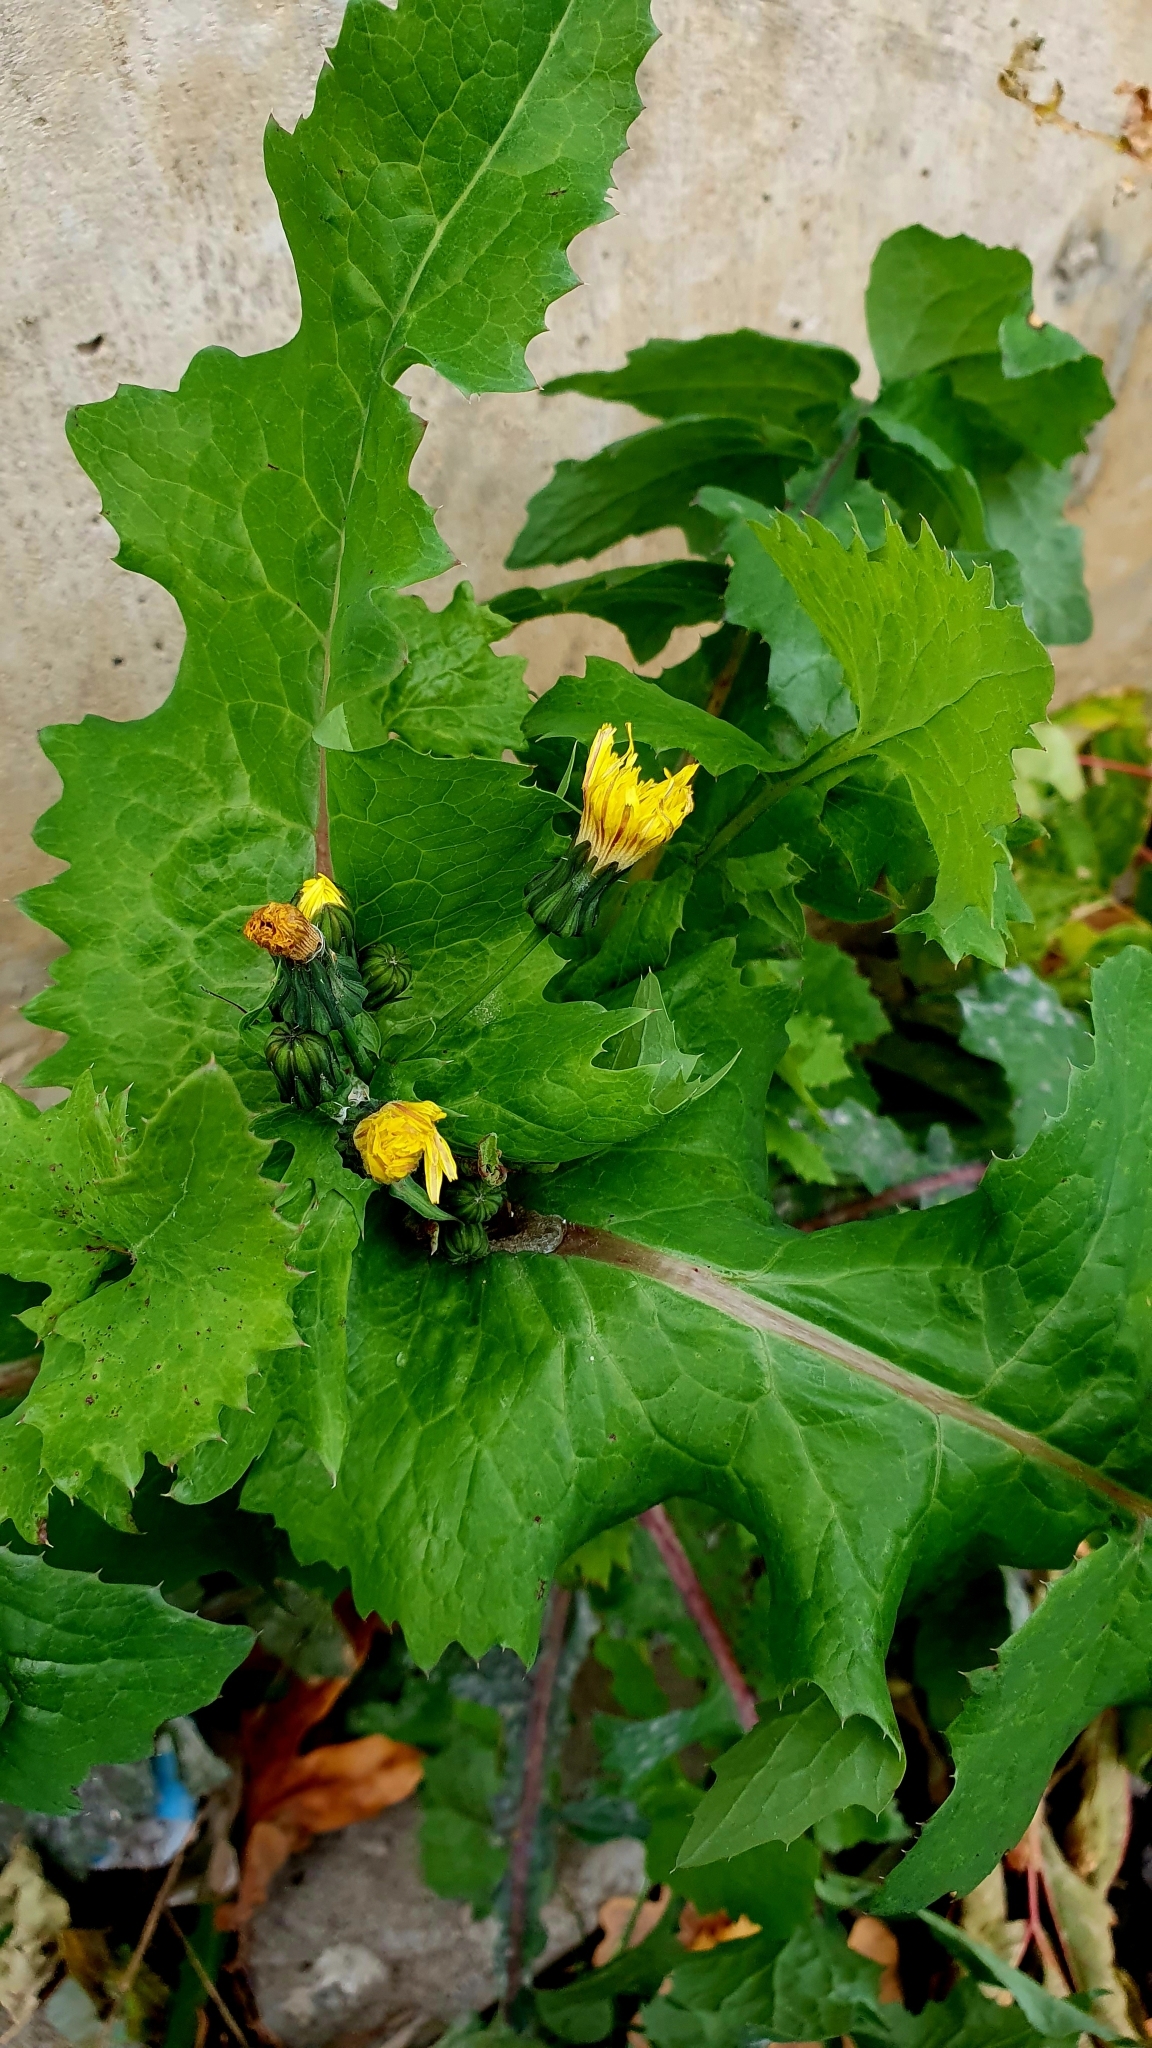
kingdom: Plantae
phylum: Tracheophyta
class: Magnoliopsida
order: Asterales
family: Asteraceae
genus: Sonchus
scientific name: Sonchus oleraceus
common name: Common sowthistle
